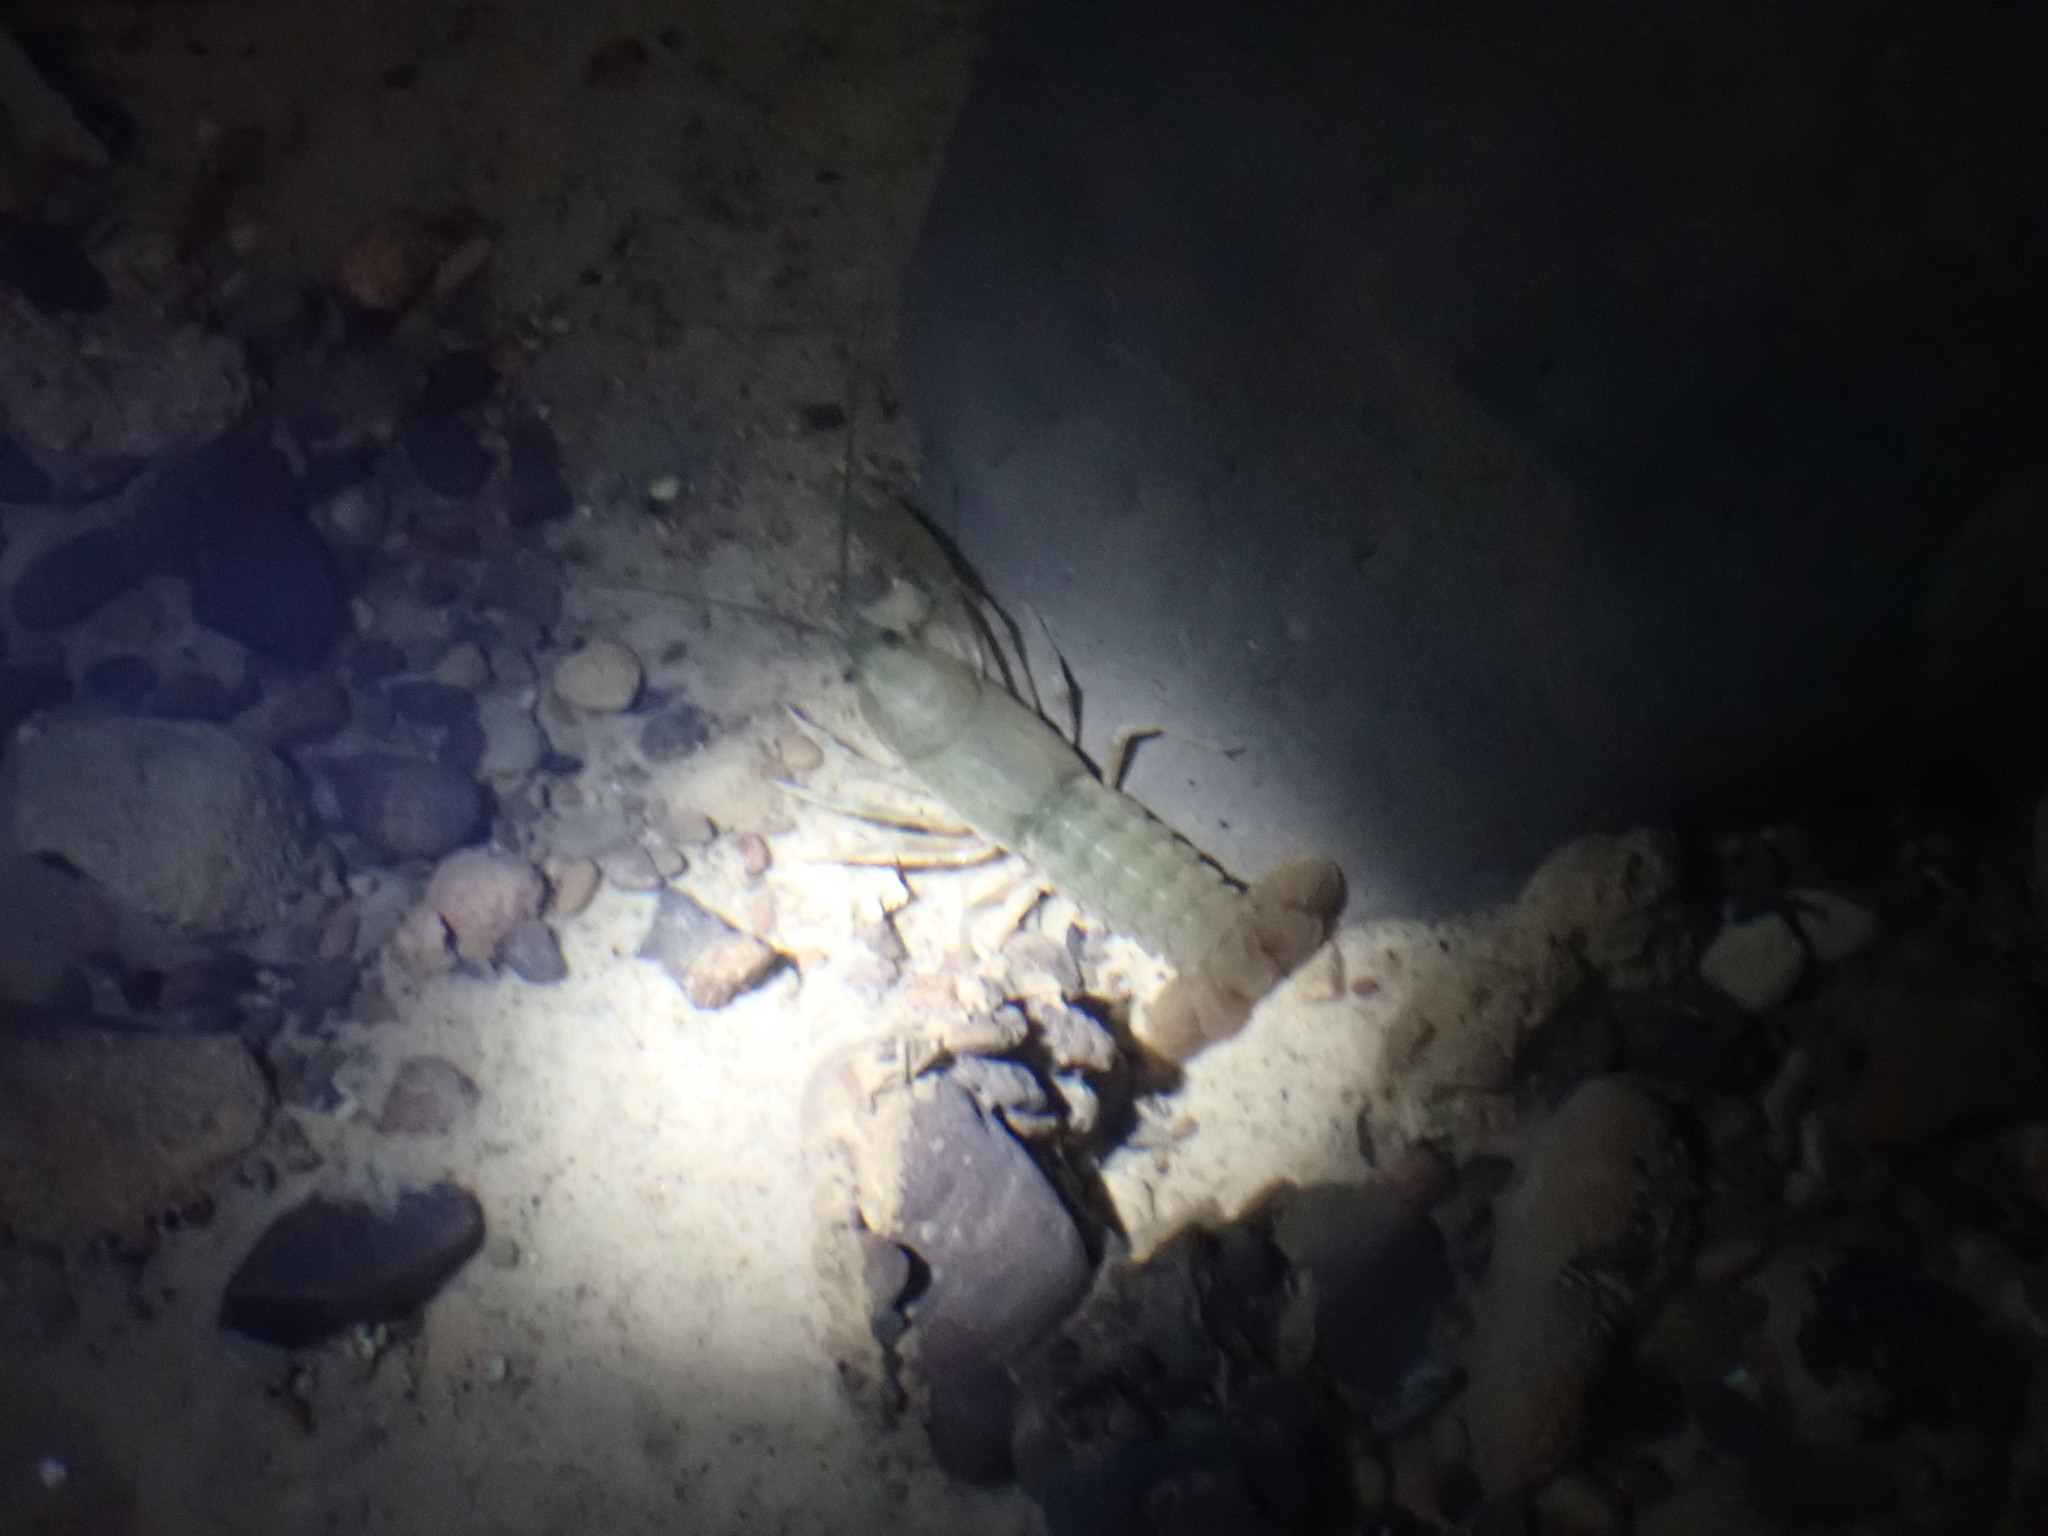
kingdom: Animalia
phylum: Arthropoda
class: Malacostraca
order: Decapoda
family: Cambaridae
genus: Cambarus
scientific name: Cambarus tenebrosus
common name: Cavespring crayfish
